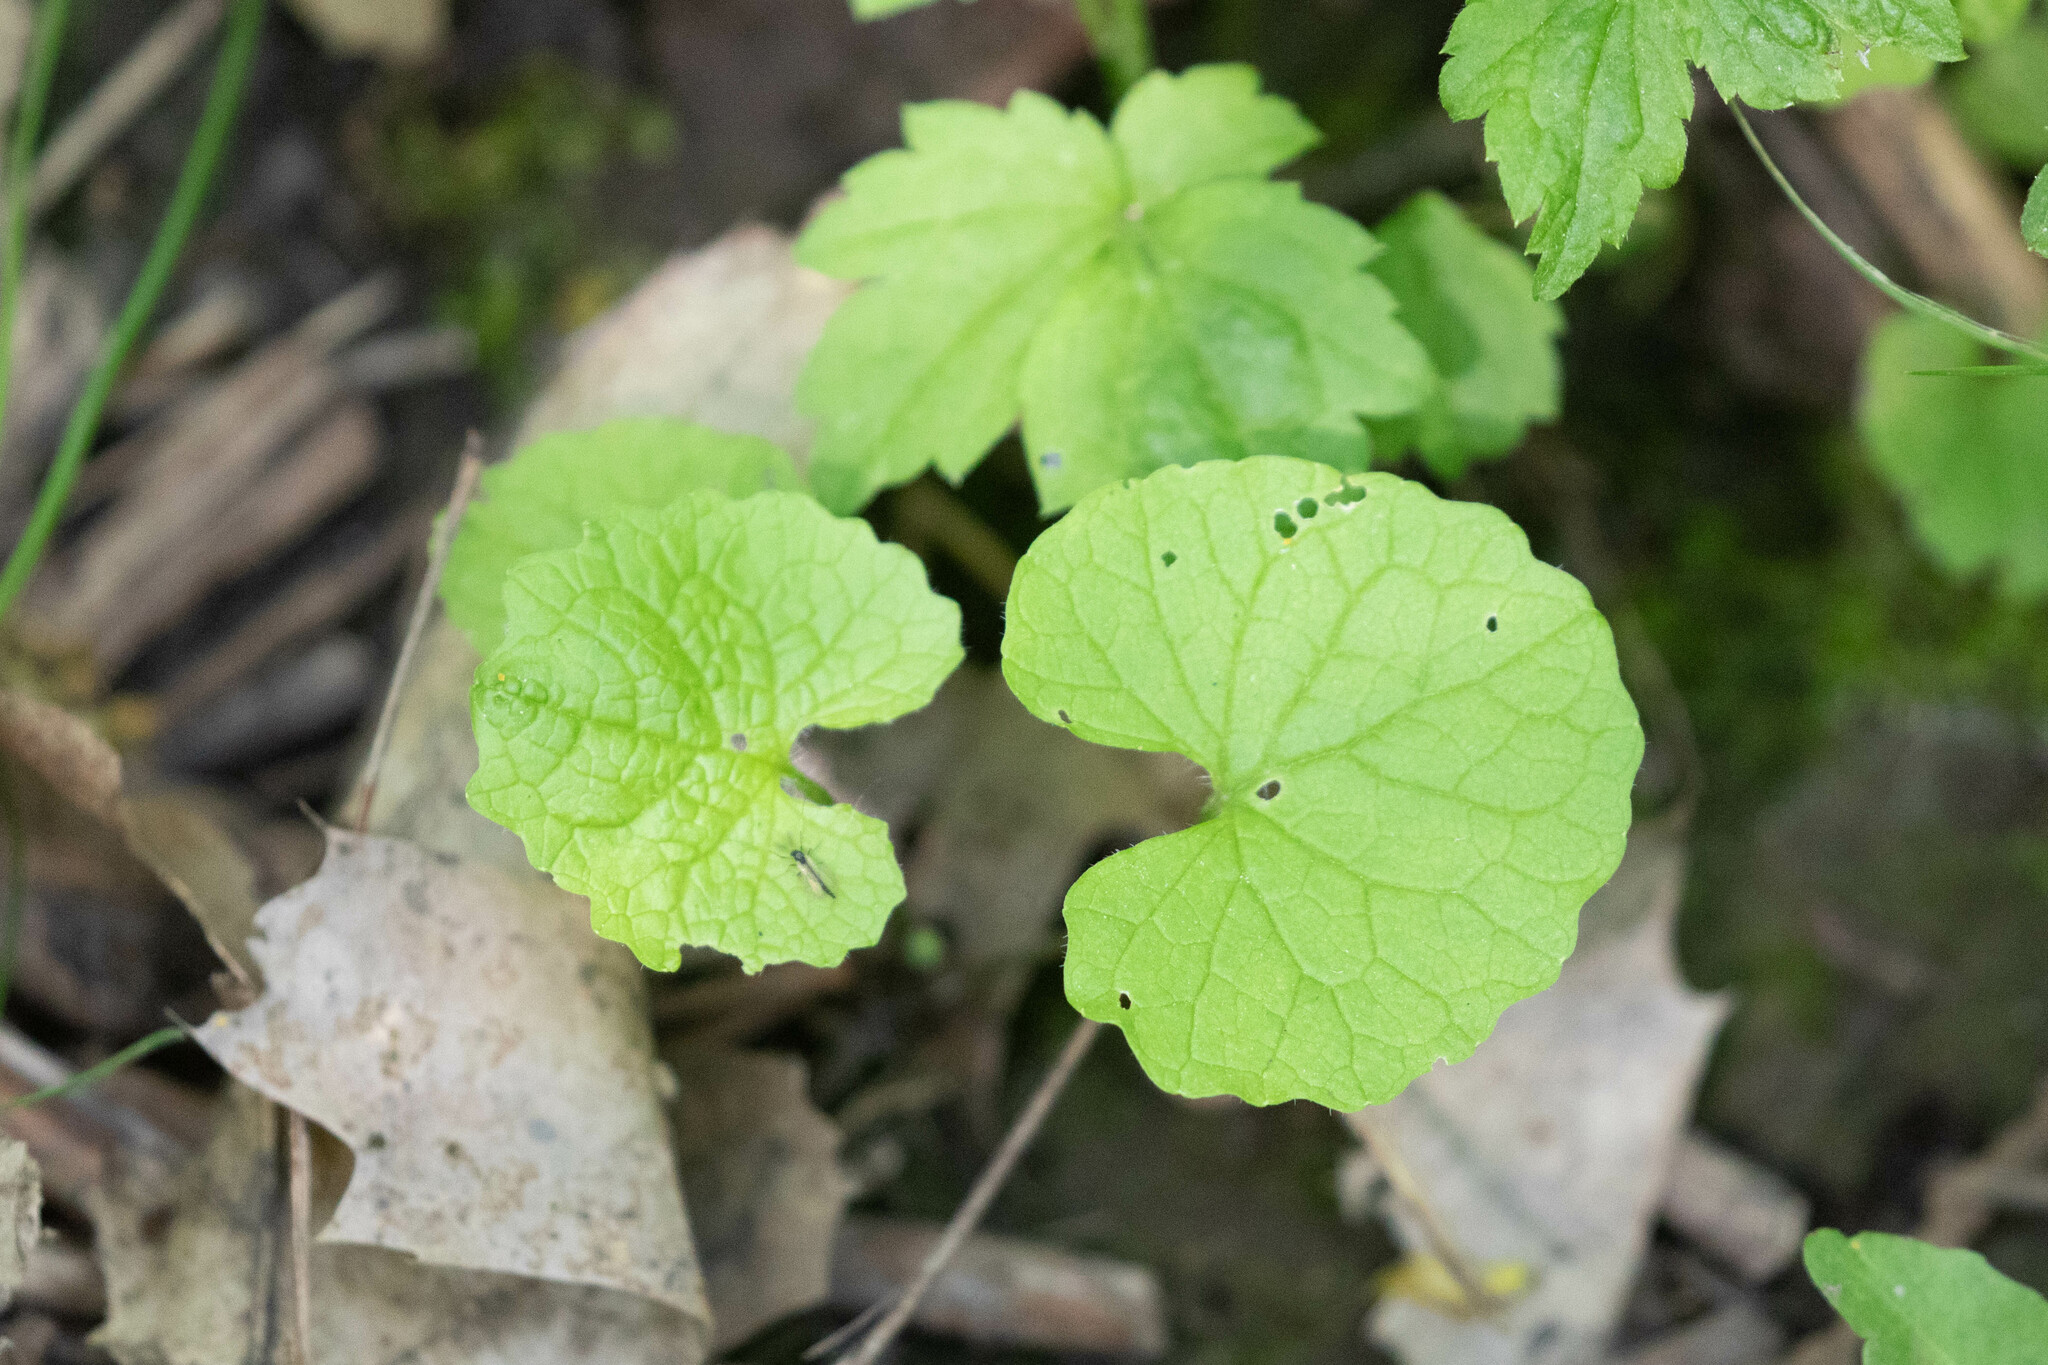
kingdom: Plantae
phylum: Tracheophyta
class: Magnoliopsida
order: Brassicales
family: Brassicaceae
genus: Alliaria
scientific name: Alliaria petiolata
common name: Garlic mustard
